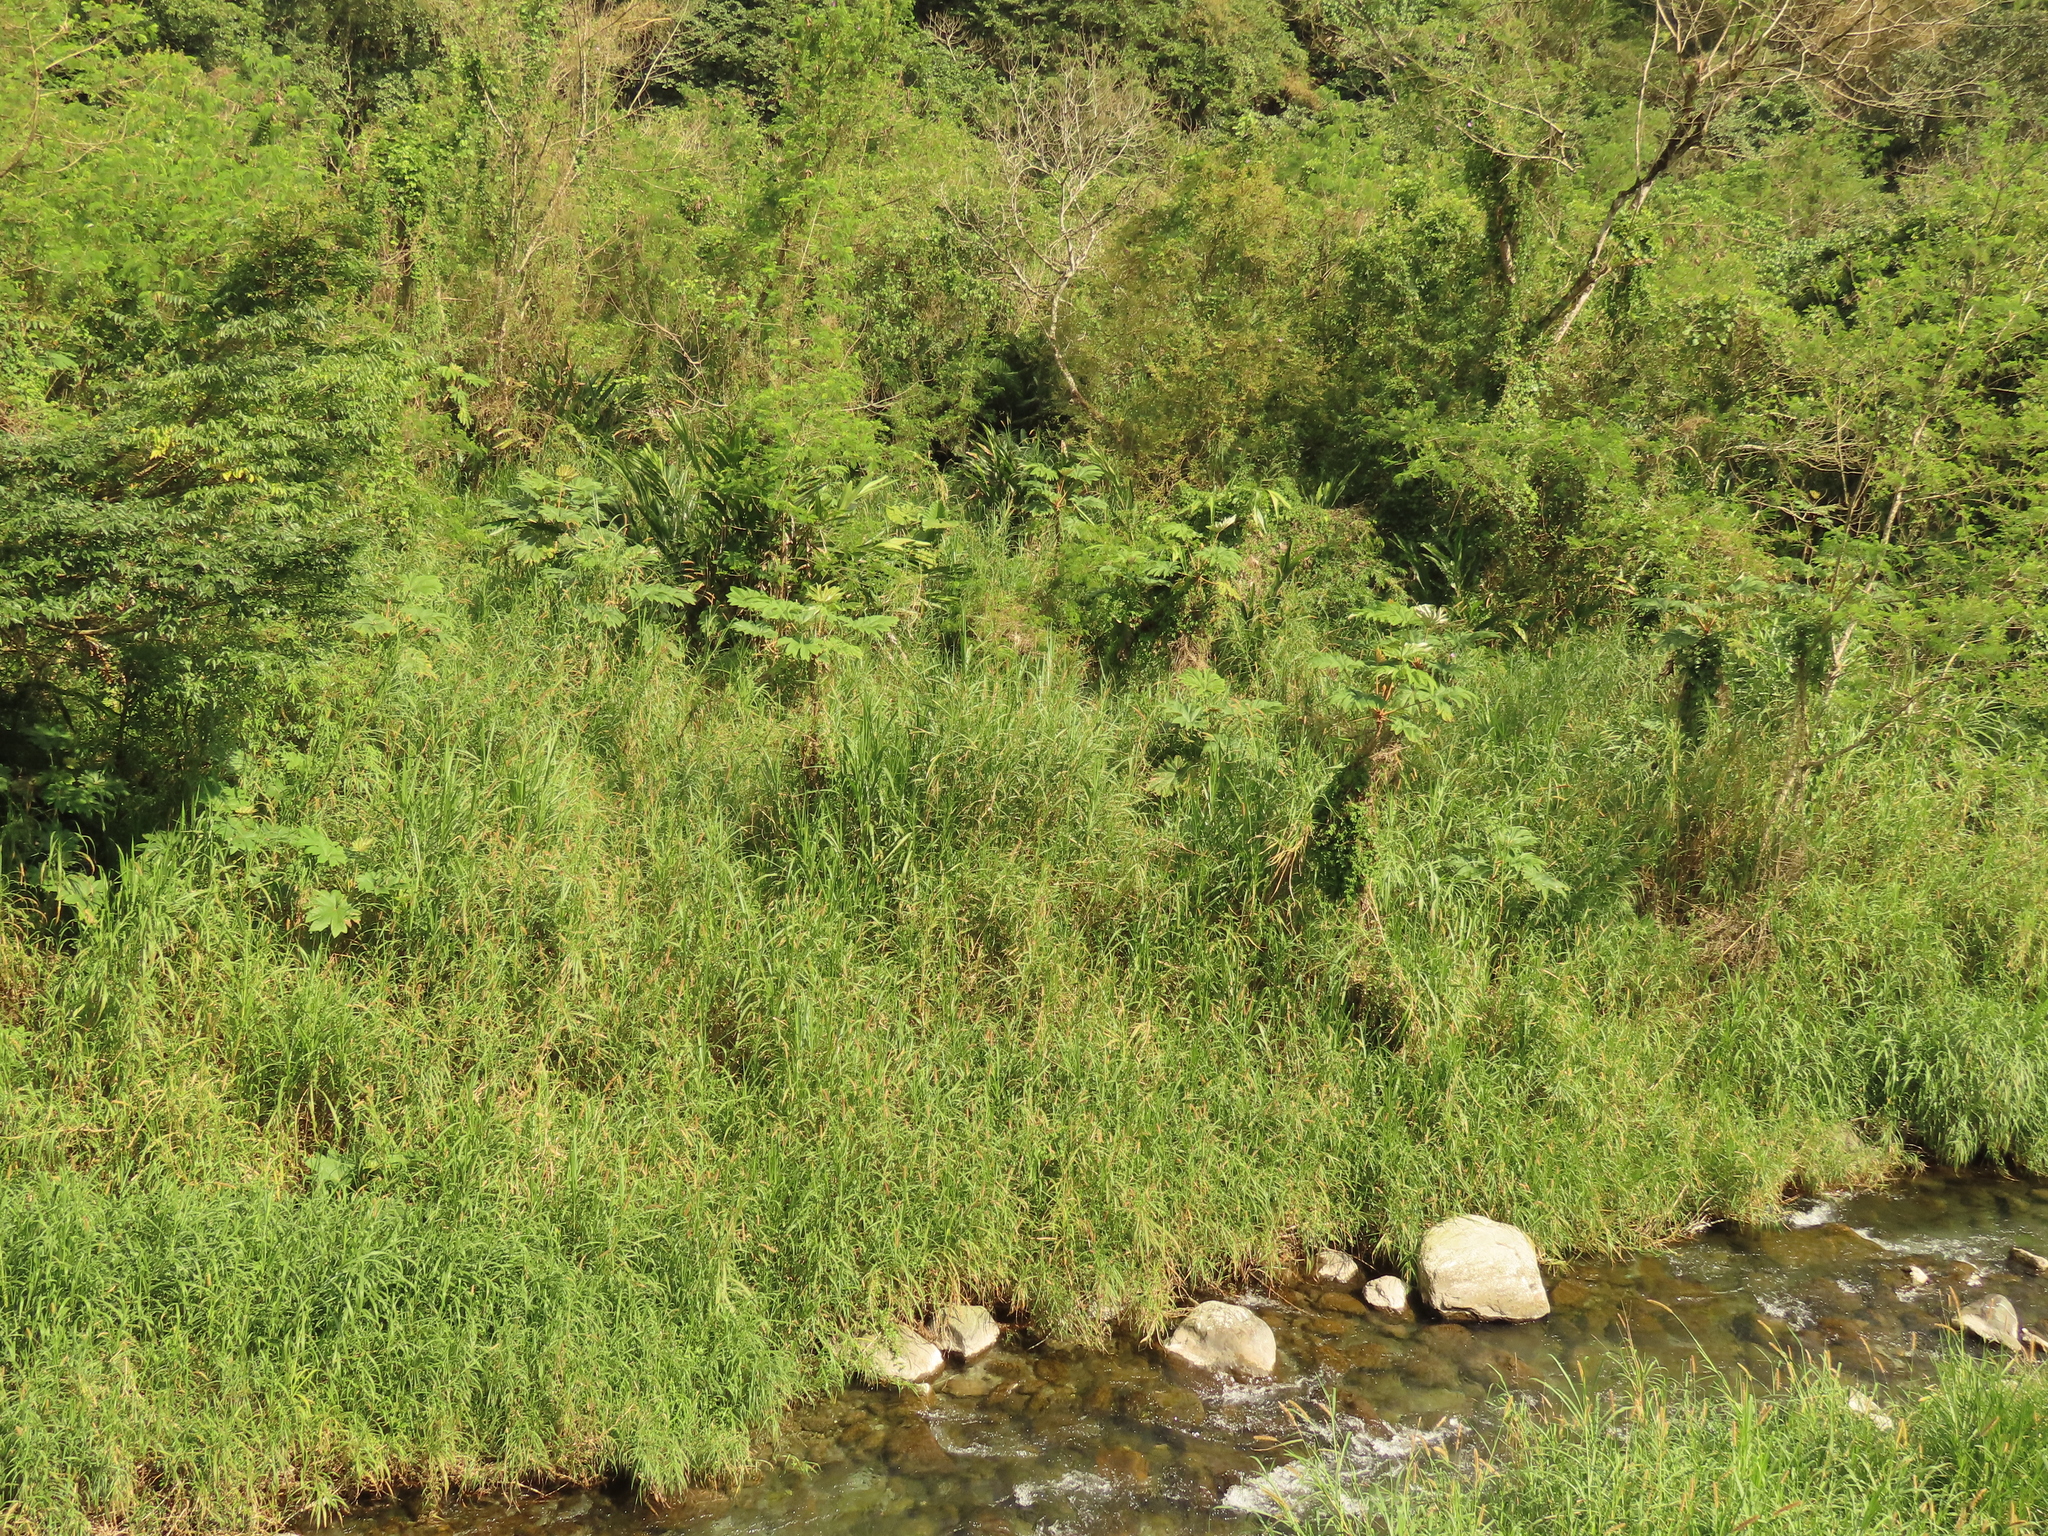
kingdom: Plantae
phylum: Tracheophyta
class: Magnoliopsida
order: Apiales
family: Araliaceae
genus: Tetrapanax
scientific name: Tetrapanax papyrifer
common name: Rice-paper plant
